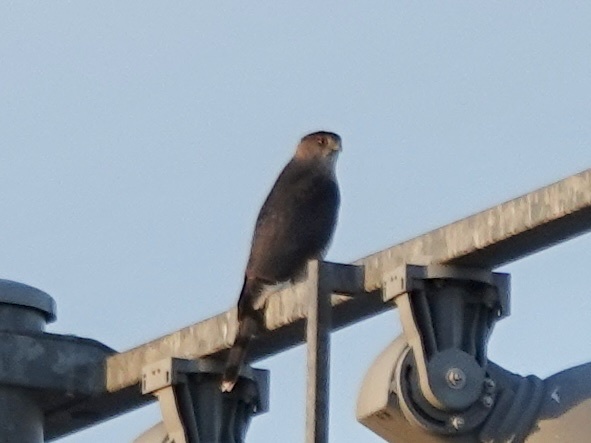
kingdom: Animalia
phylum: Chordata
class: Aves
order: Accipitriformes
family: Accipitridae
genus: Accipiter
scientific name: Accipiter cooperii
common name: Cooper's hawk
